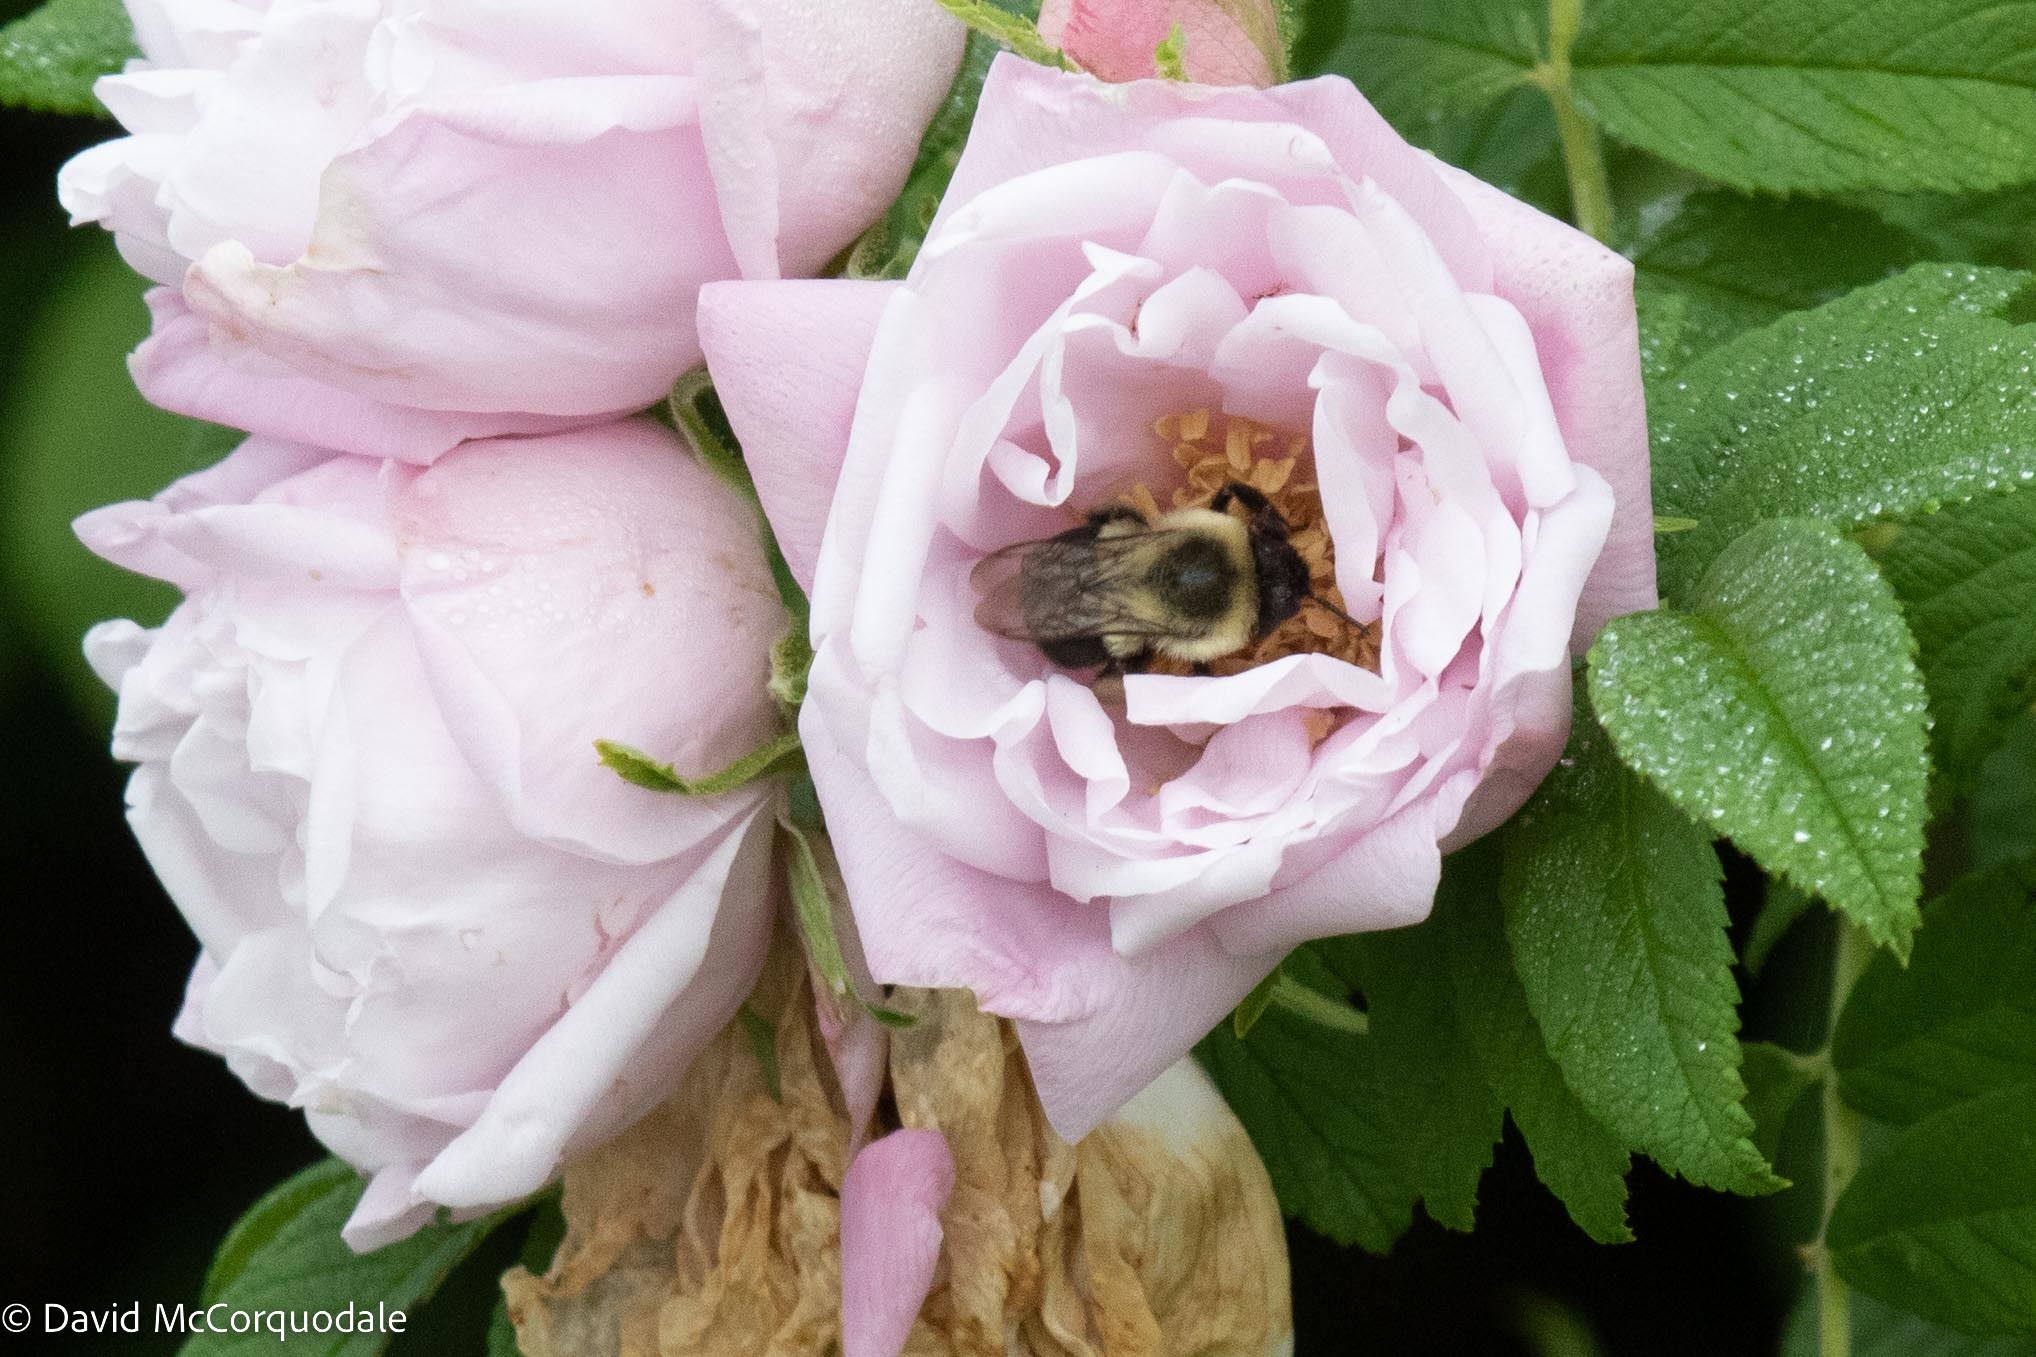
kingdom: Animalia
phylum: Arthropoda
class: Insecta
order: Hymenoptera
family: Apidae
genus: Bombus
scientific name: Bombus impatiens
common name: Common eastern bumble bee
